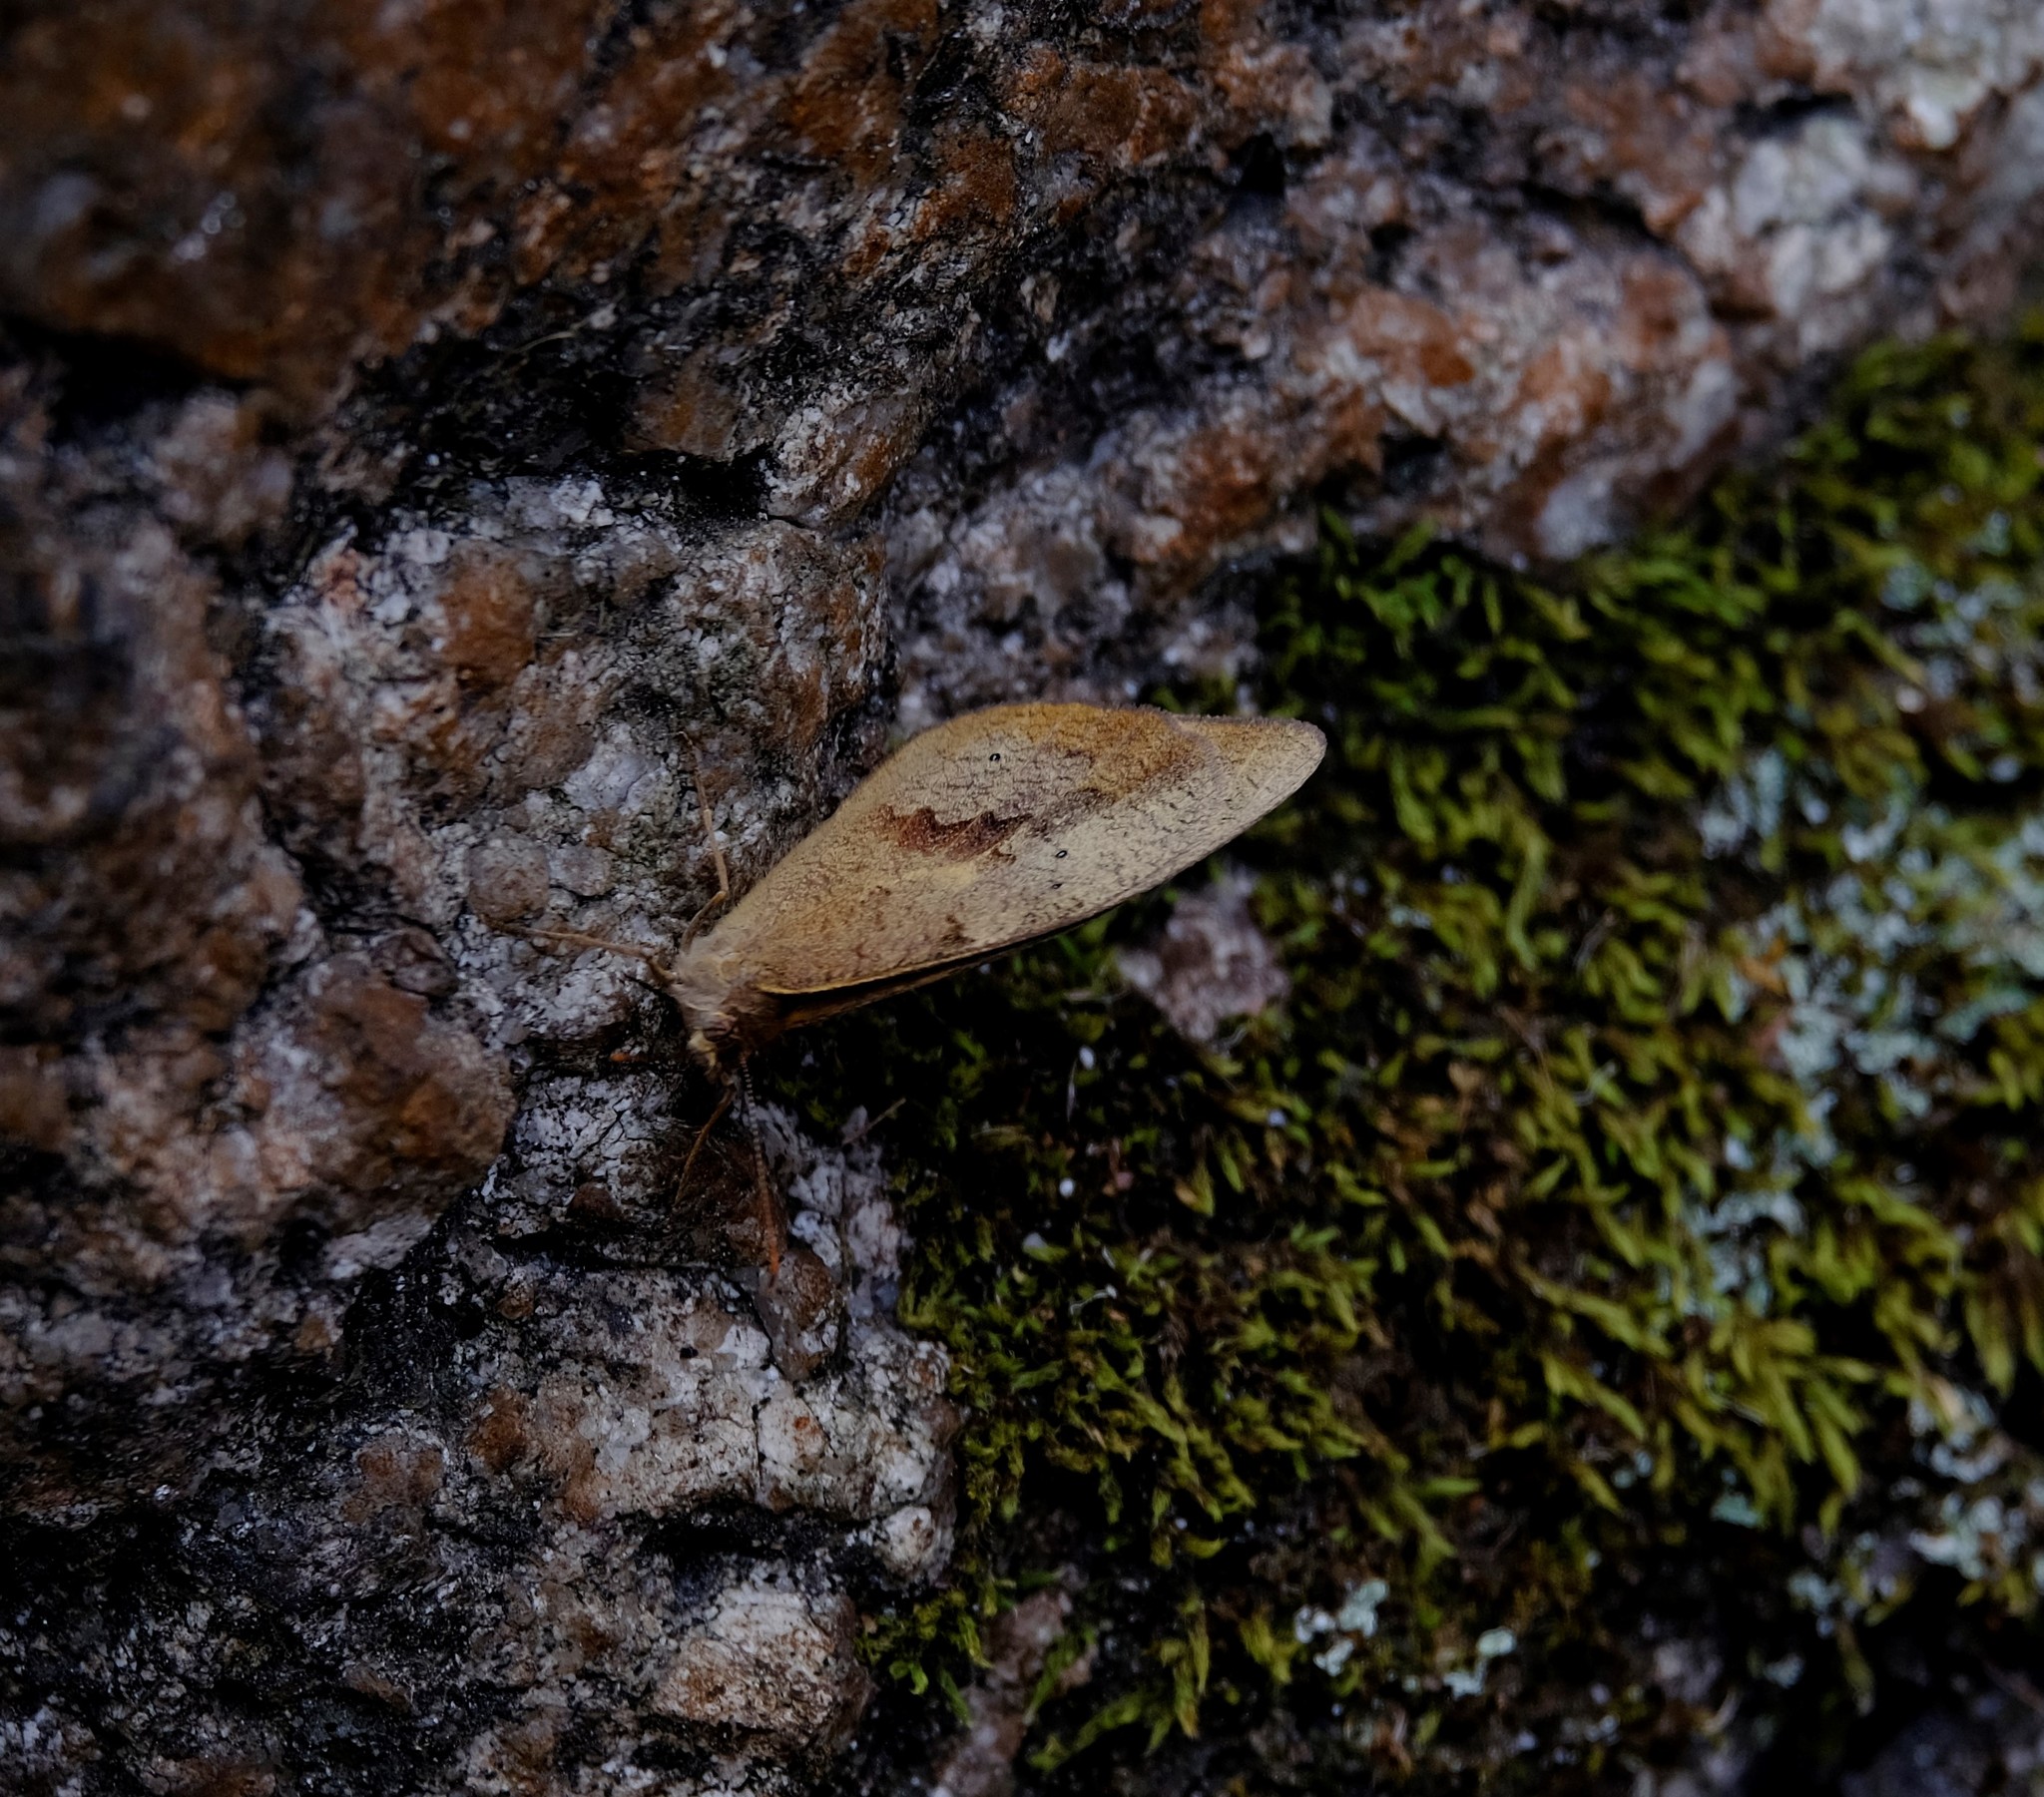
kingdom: Animalia
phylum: Arthropoda
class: Insecta
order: Lepidoptera
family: Nymphalidae
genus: Heteronympha
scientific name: Heteronympha merope
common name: Common brown
